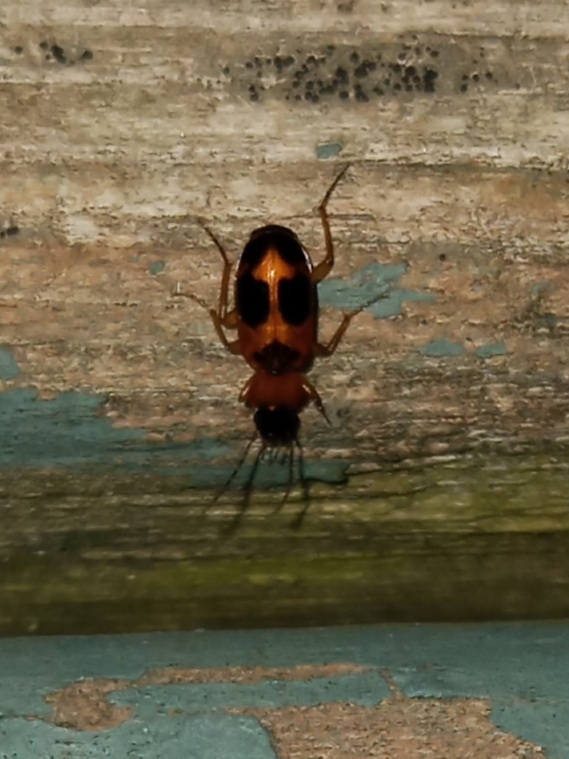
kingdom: Animalia
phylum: Arthropoda
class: Insecta
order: Coleoptera
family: Carabidae
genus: Badister
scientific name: Badister neopulchellus
